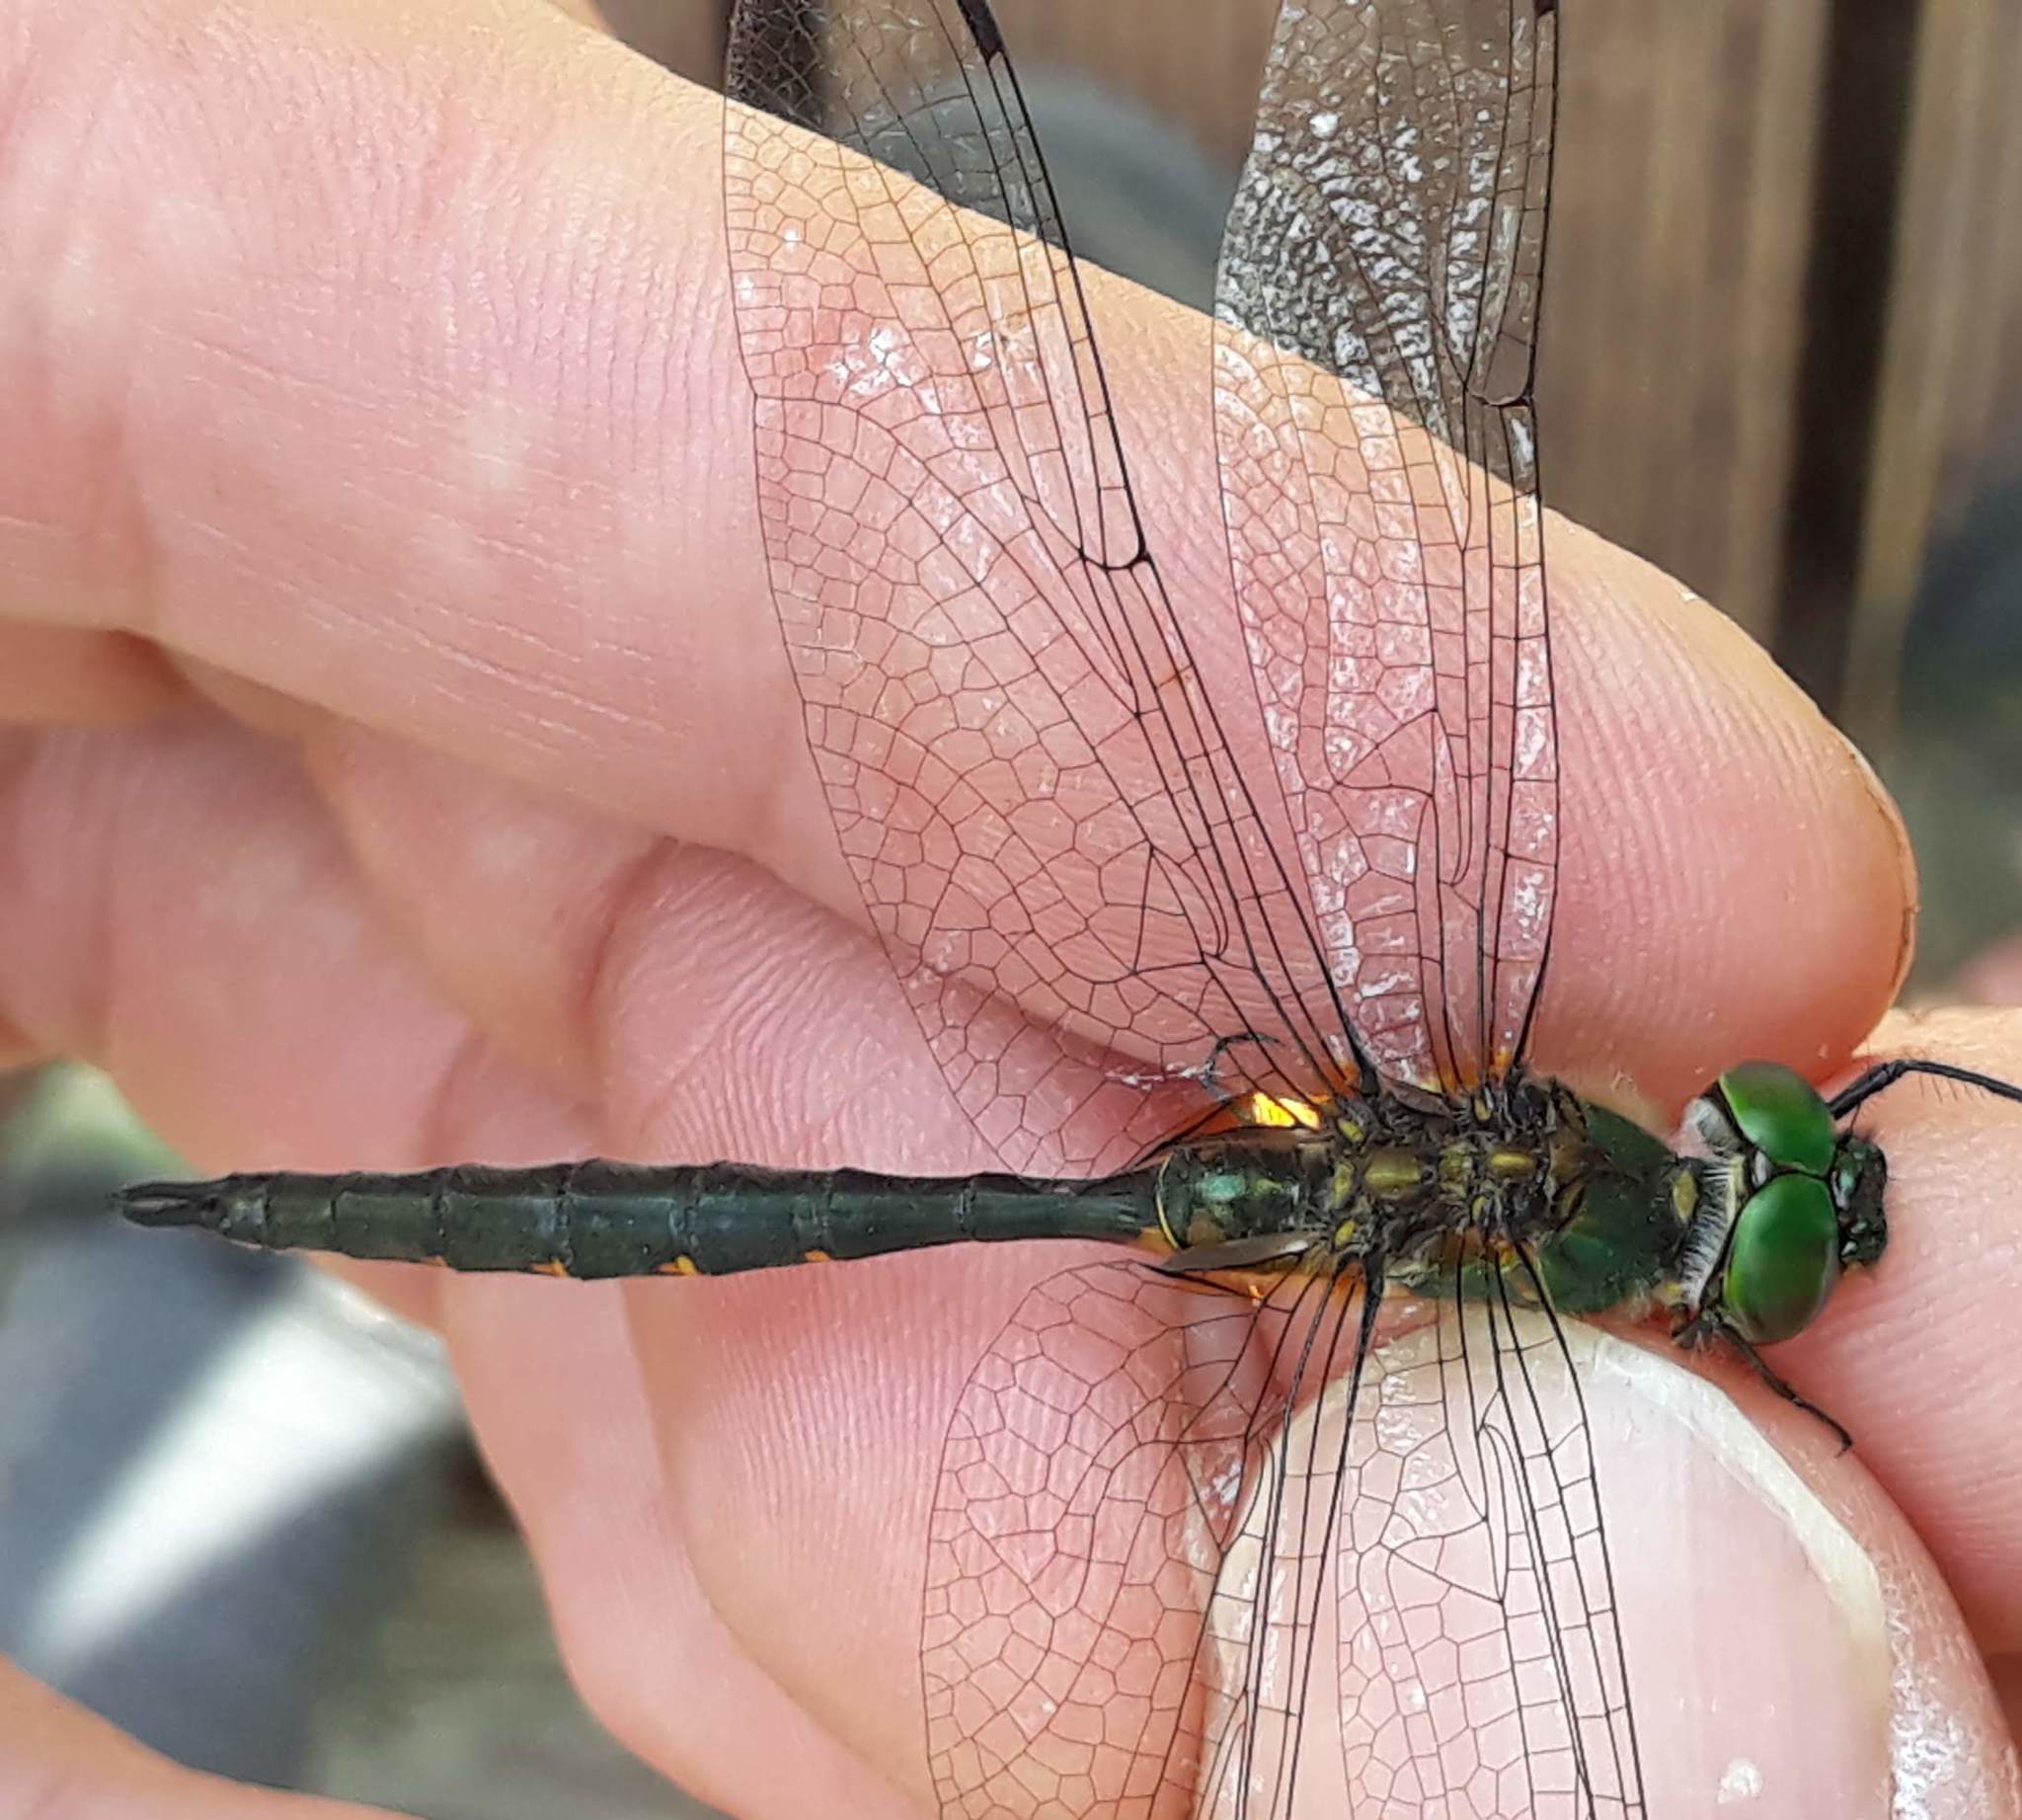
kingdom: Animalia
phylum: Arthropoda
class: Insecta
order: Odonata
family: Corduliidae
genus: Somatochlora
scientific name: Somatochlora flavomaculata
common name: Yellow-spotted emerald
